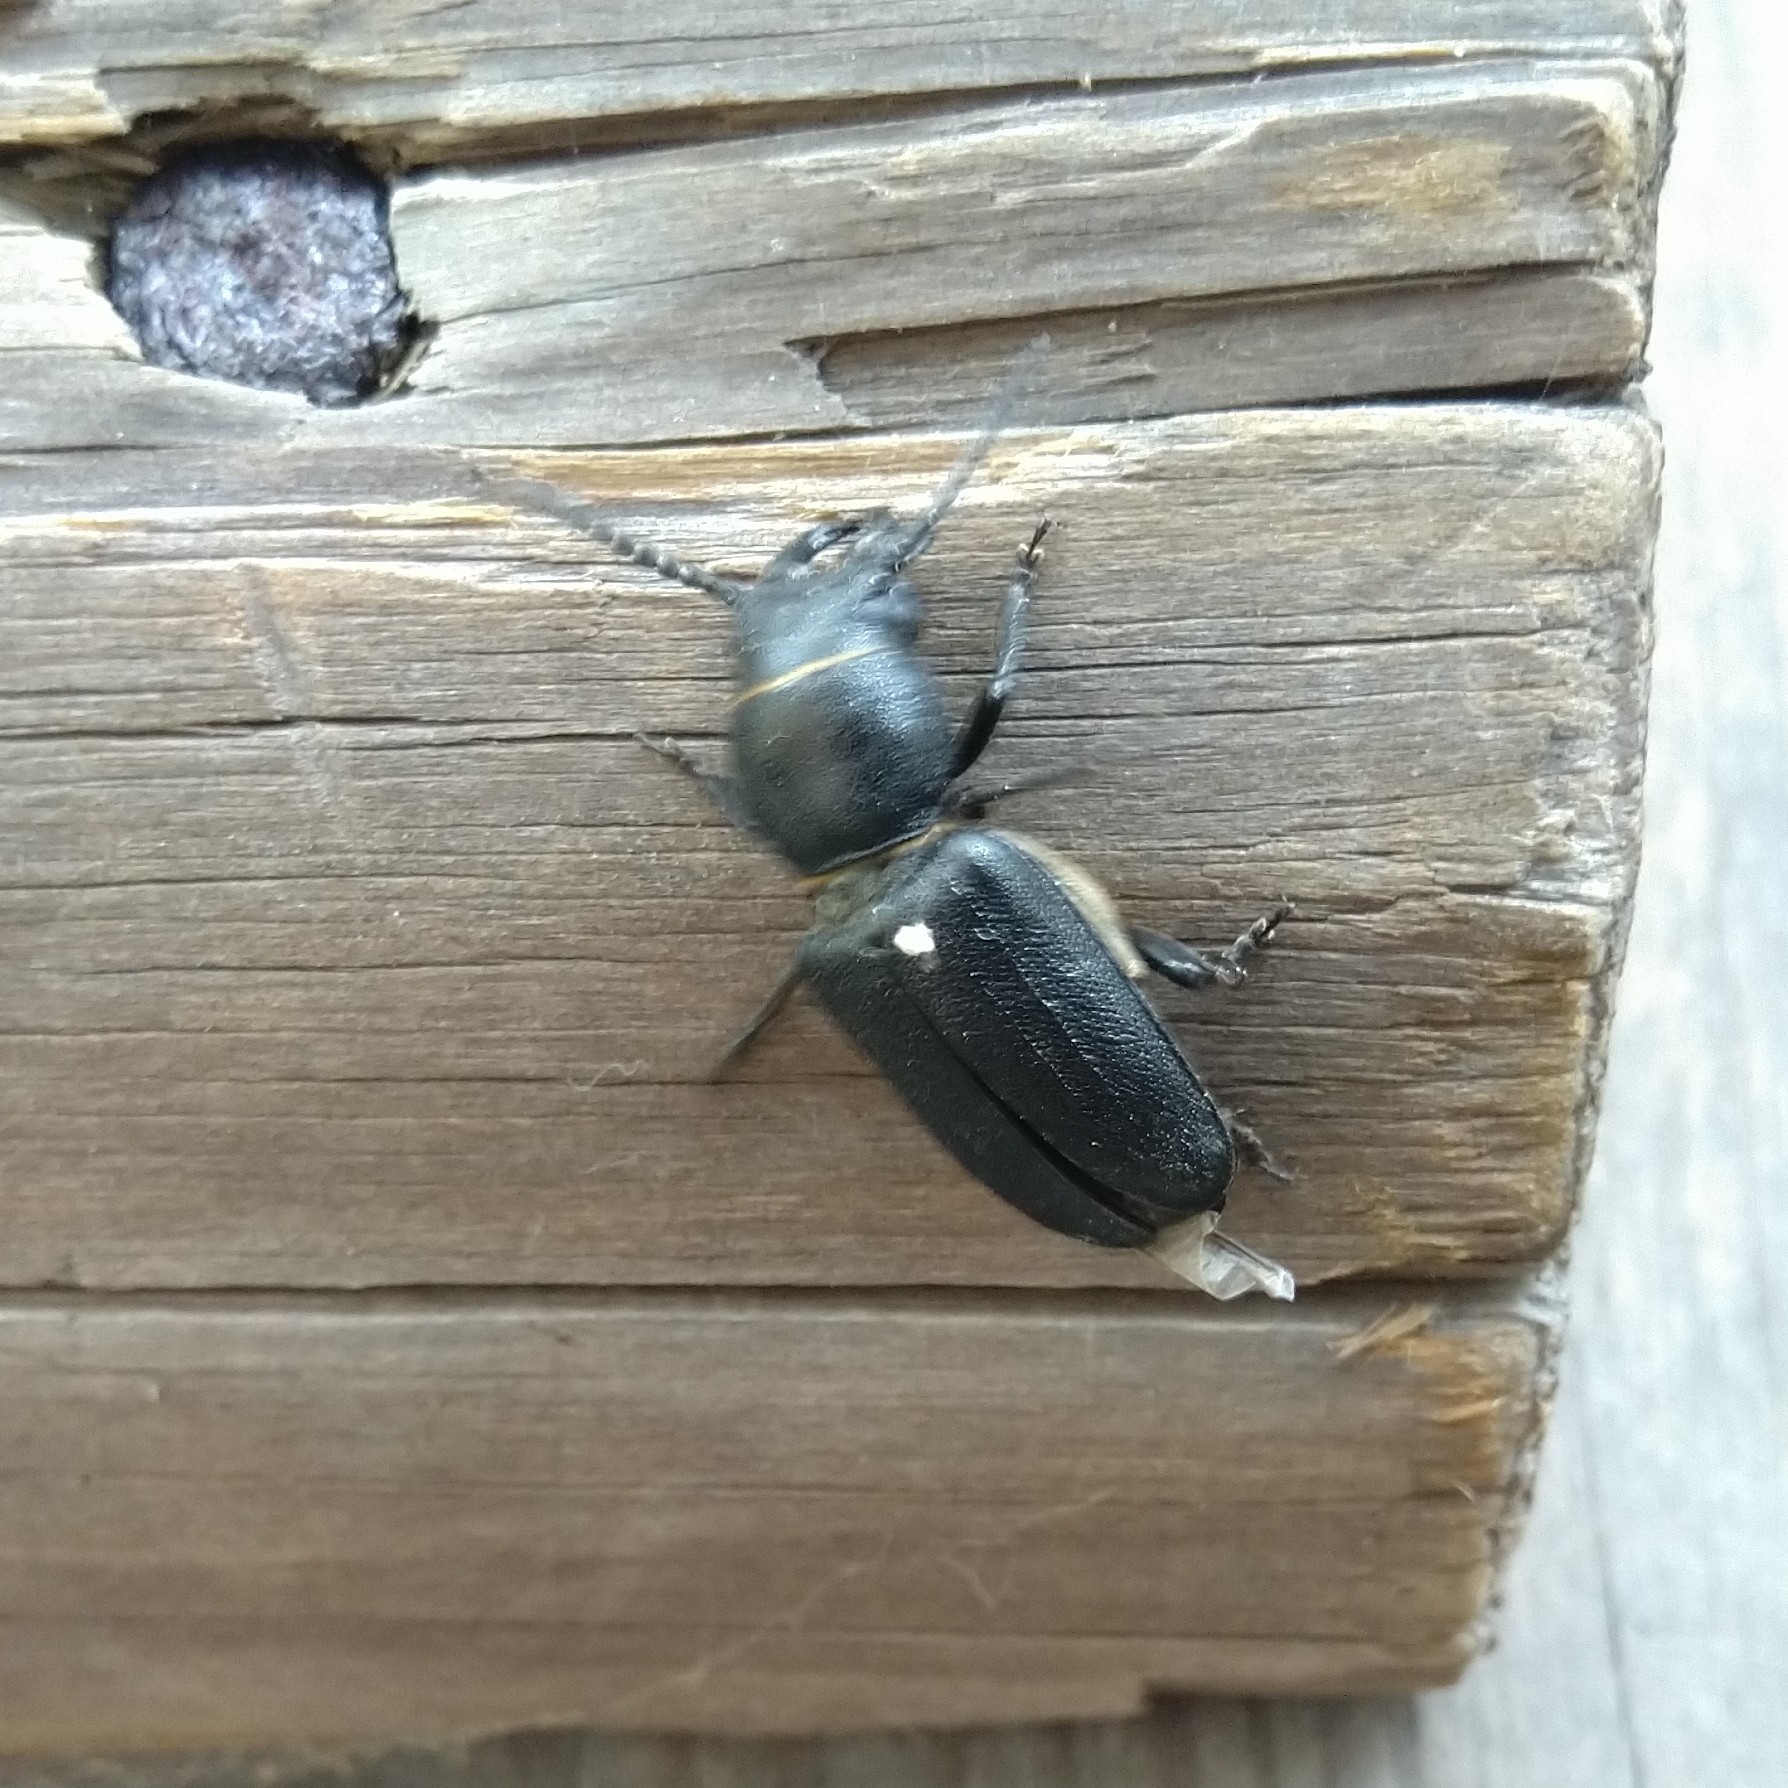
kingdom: Animalia
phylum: Arthropoda
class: Insecta
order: Coleoptera
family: Cerambycidae
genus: Spondylis
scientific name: Spondylis buprestoides
